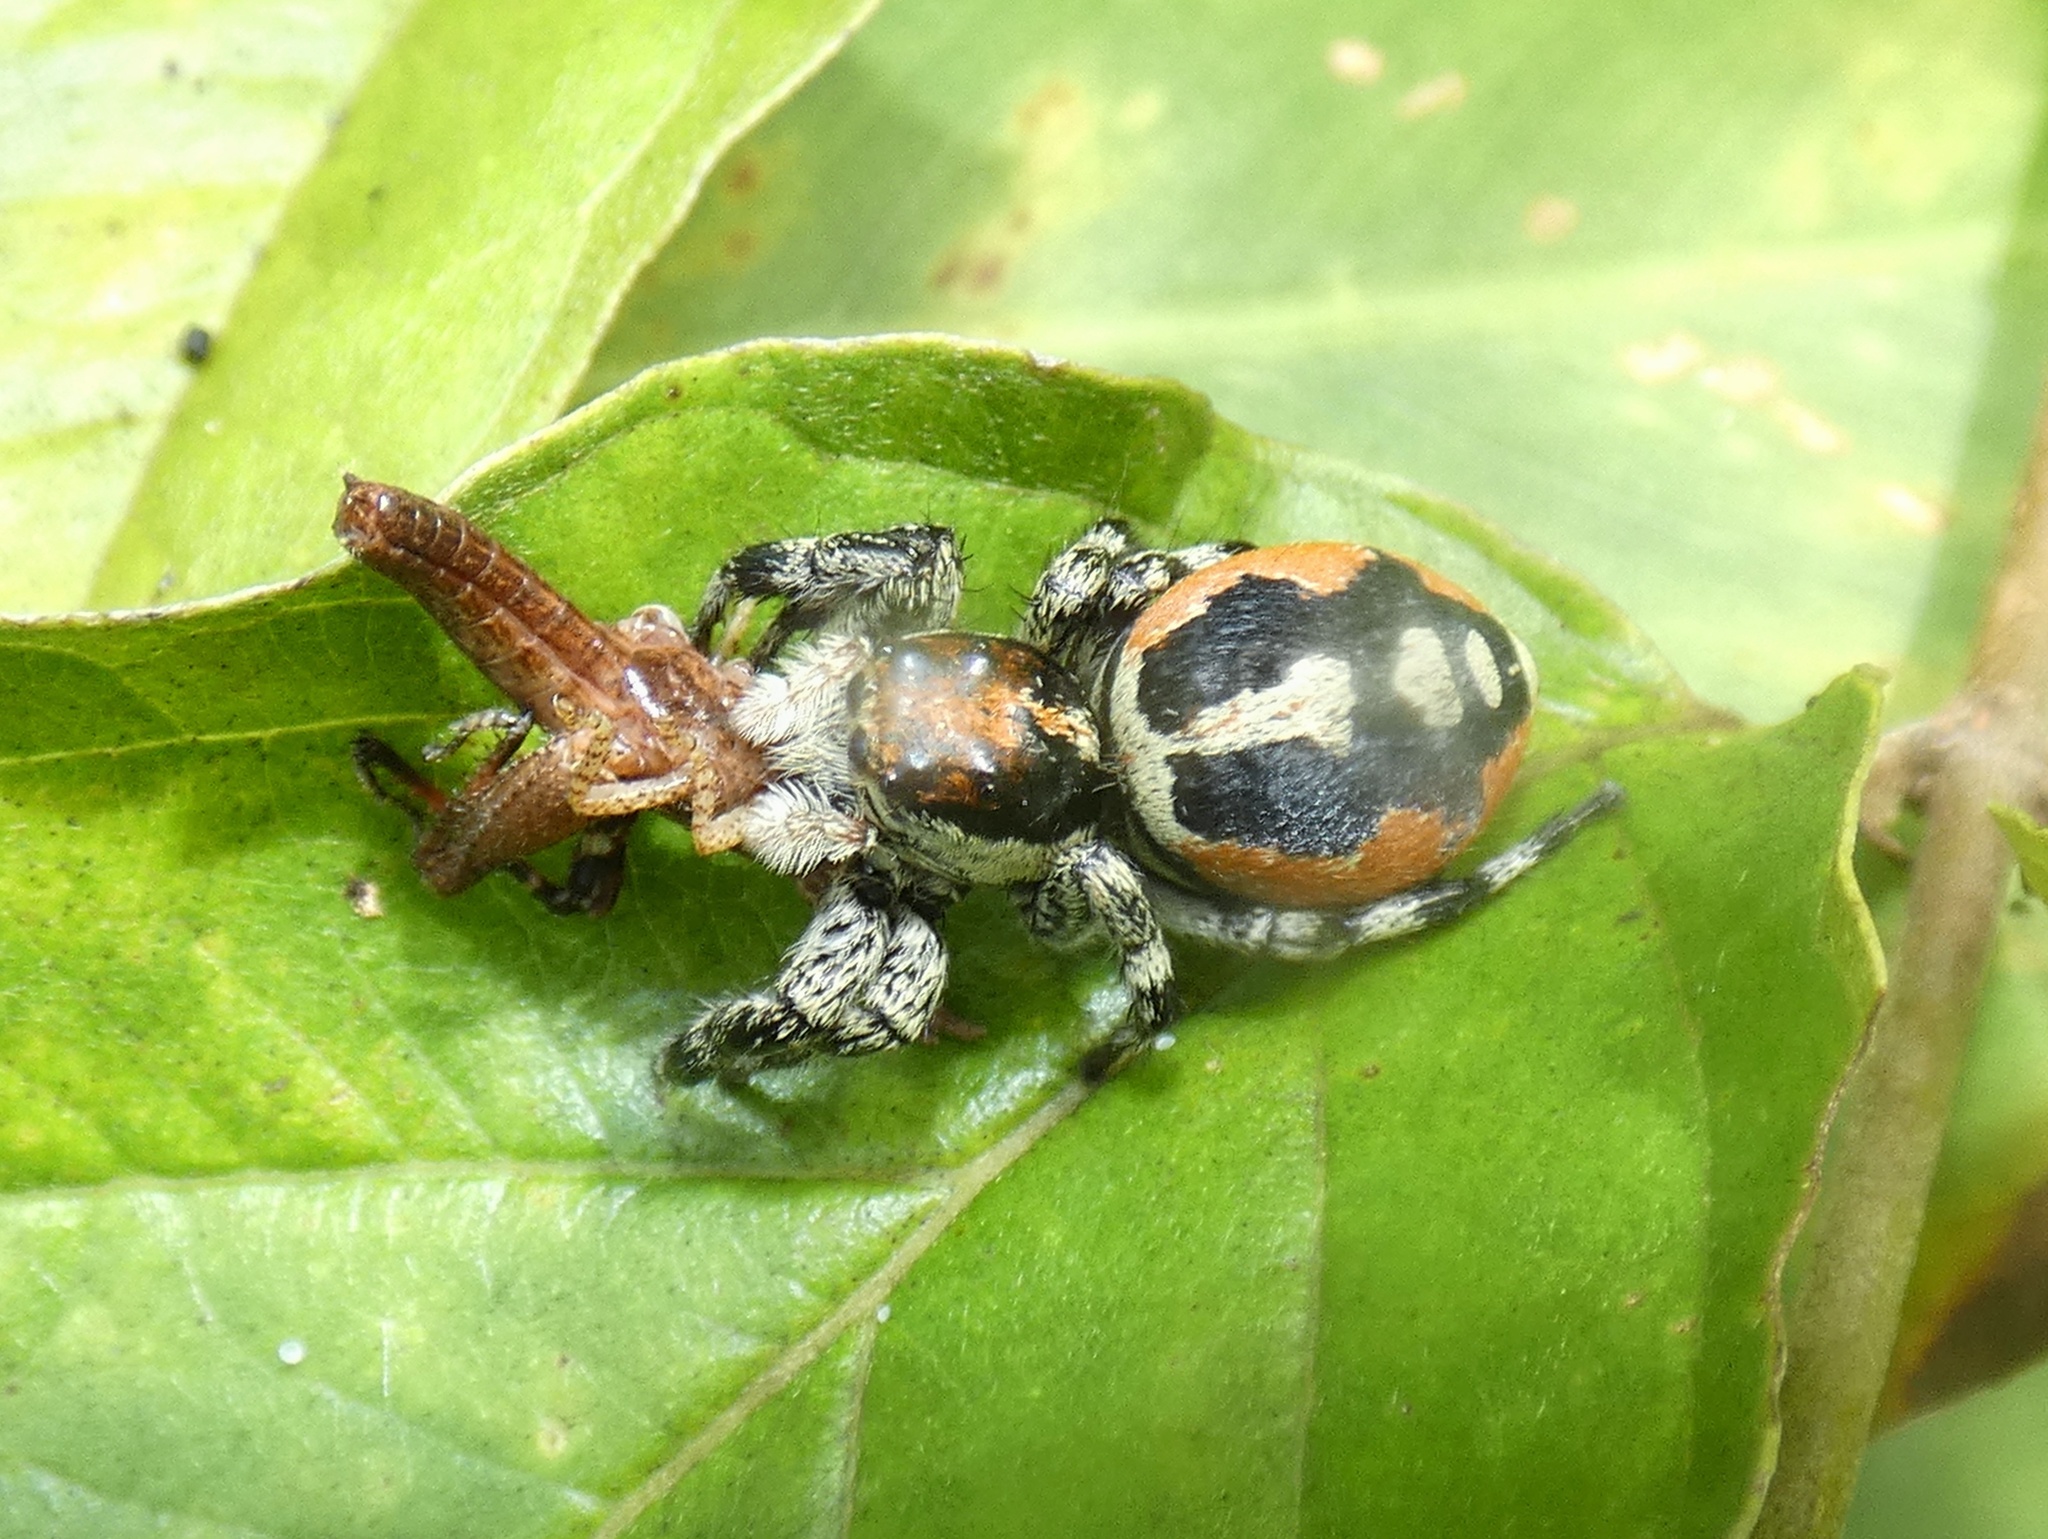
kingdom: Animalia
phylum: Arthropoda
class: Arachnida
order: Araneae
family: Salticidae
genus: Phiale
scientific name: Phiale guttata
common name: Jumping spiders
